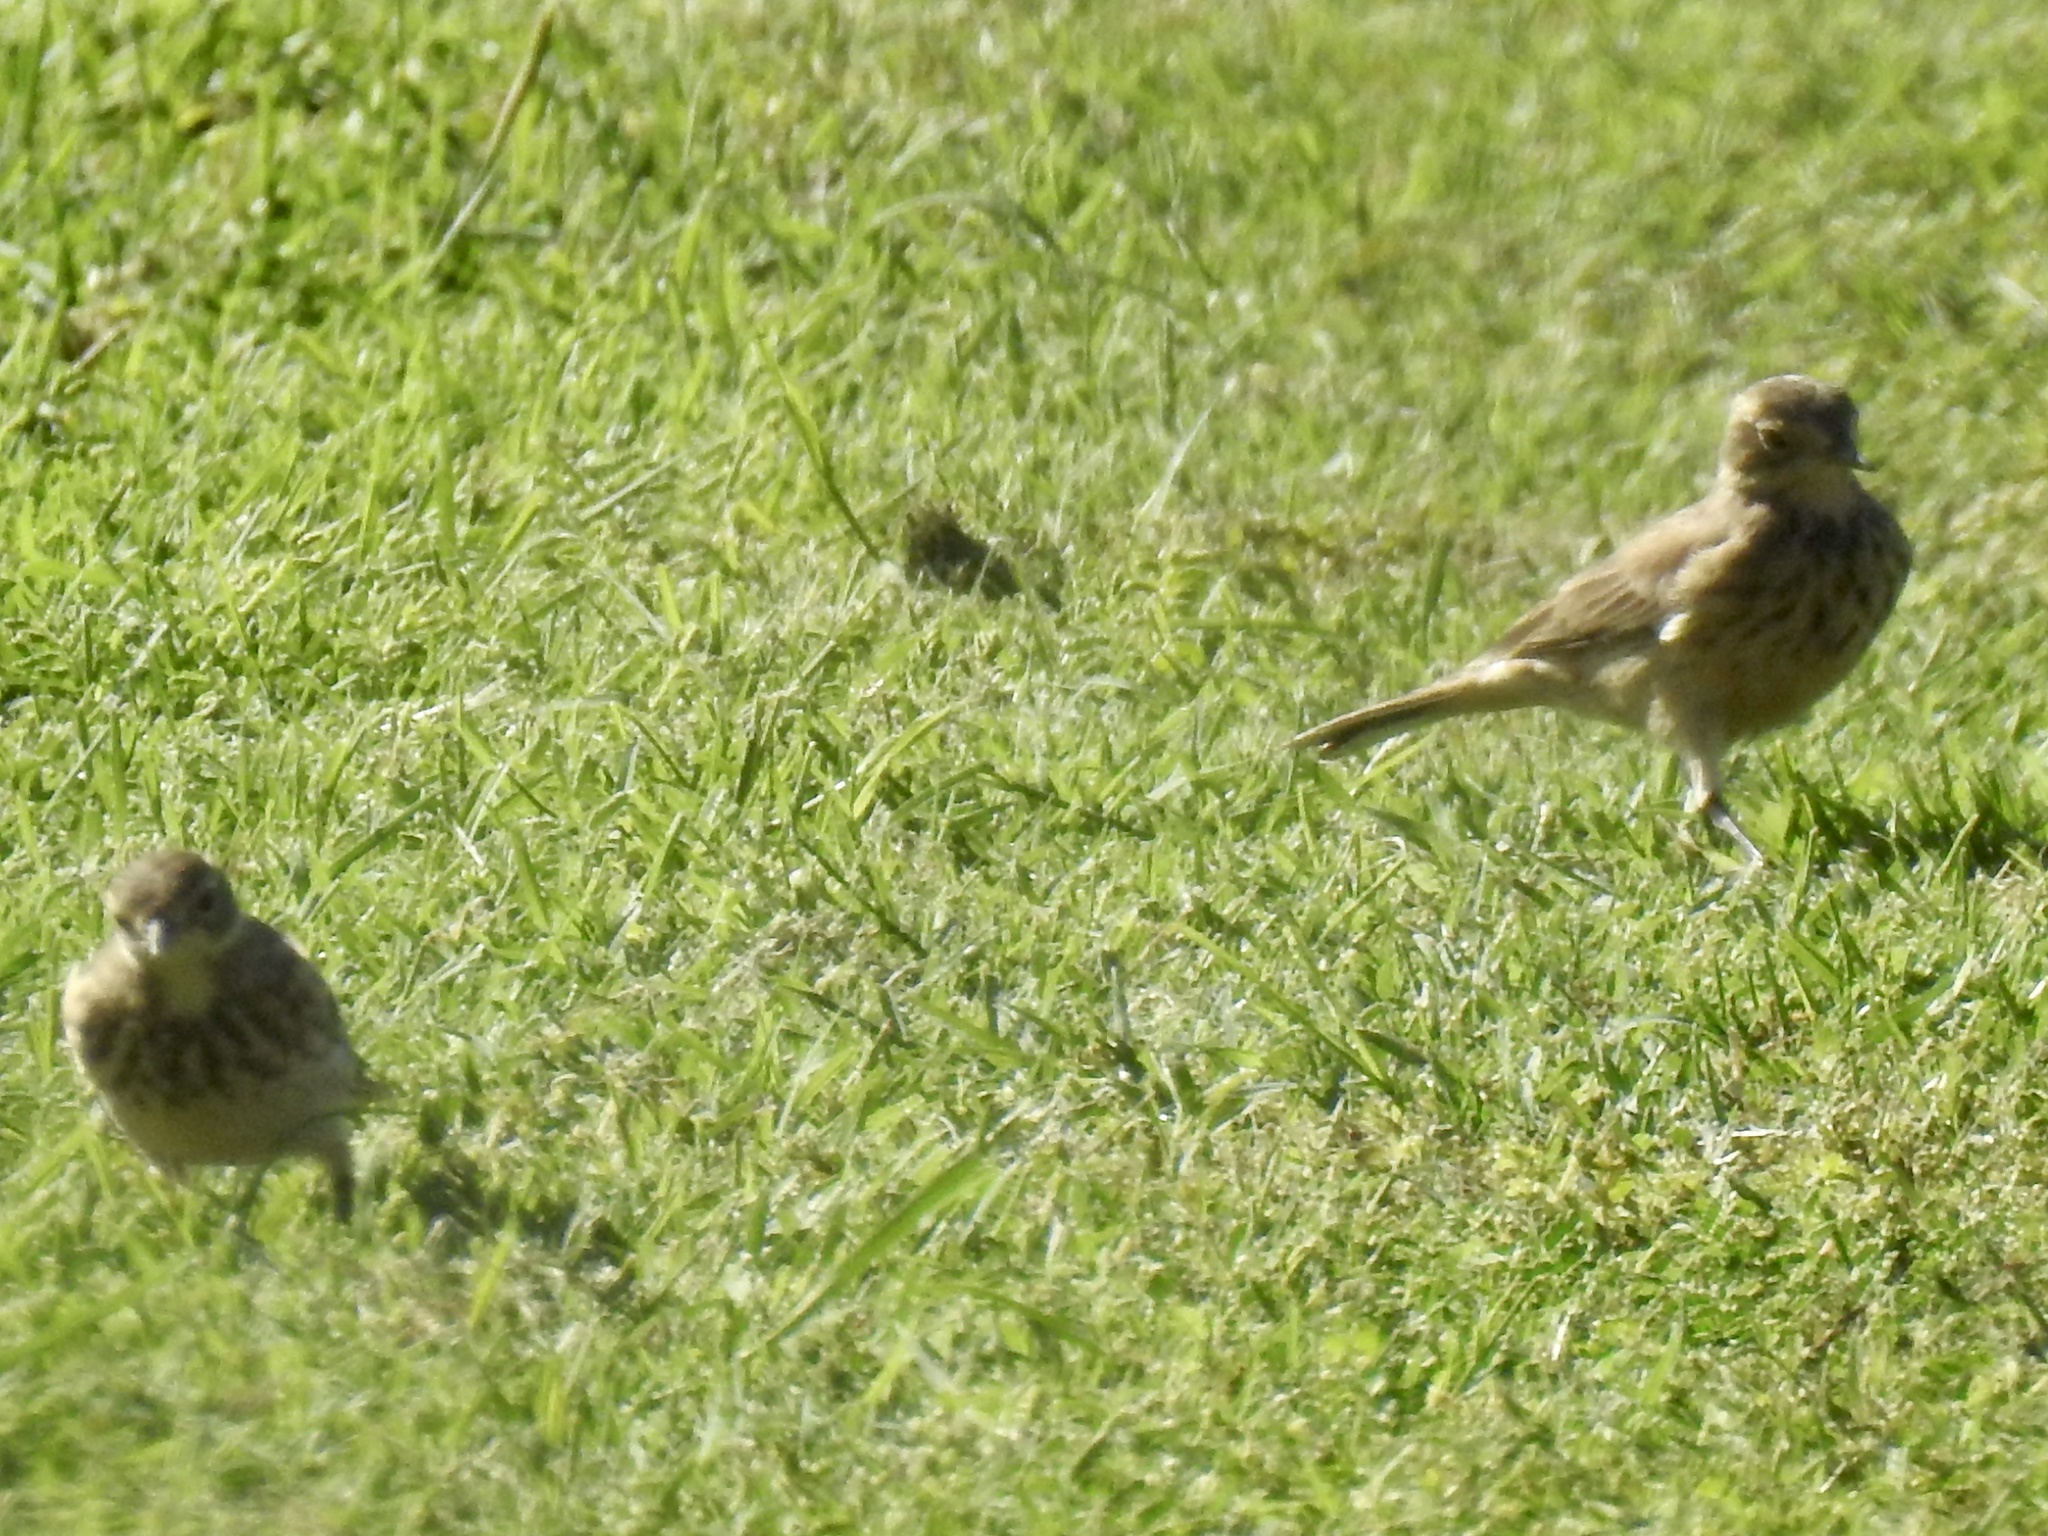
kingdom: Animalia
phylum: Chordata
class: Aves
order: Passeriformes
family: Motacillidae
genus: Anthus
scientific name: Anthus rubescens
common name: Buff-bellied pipit
